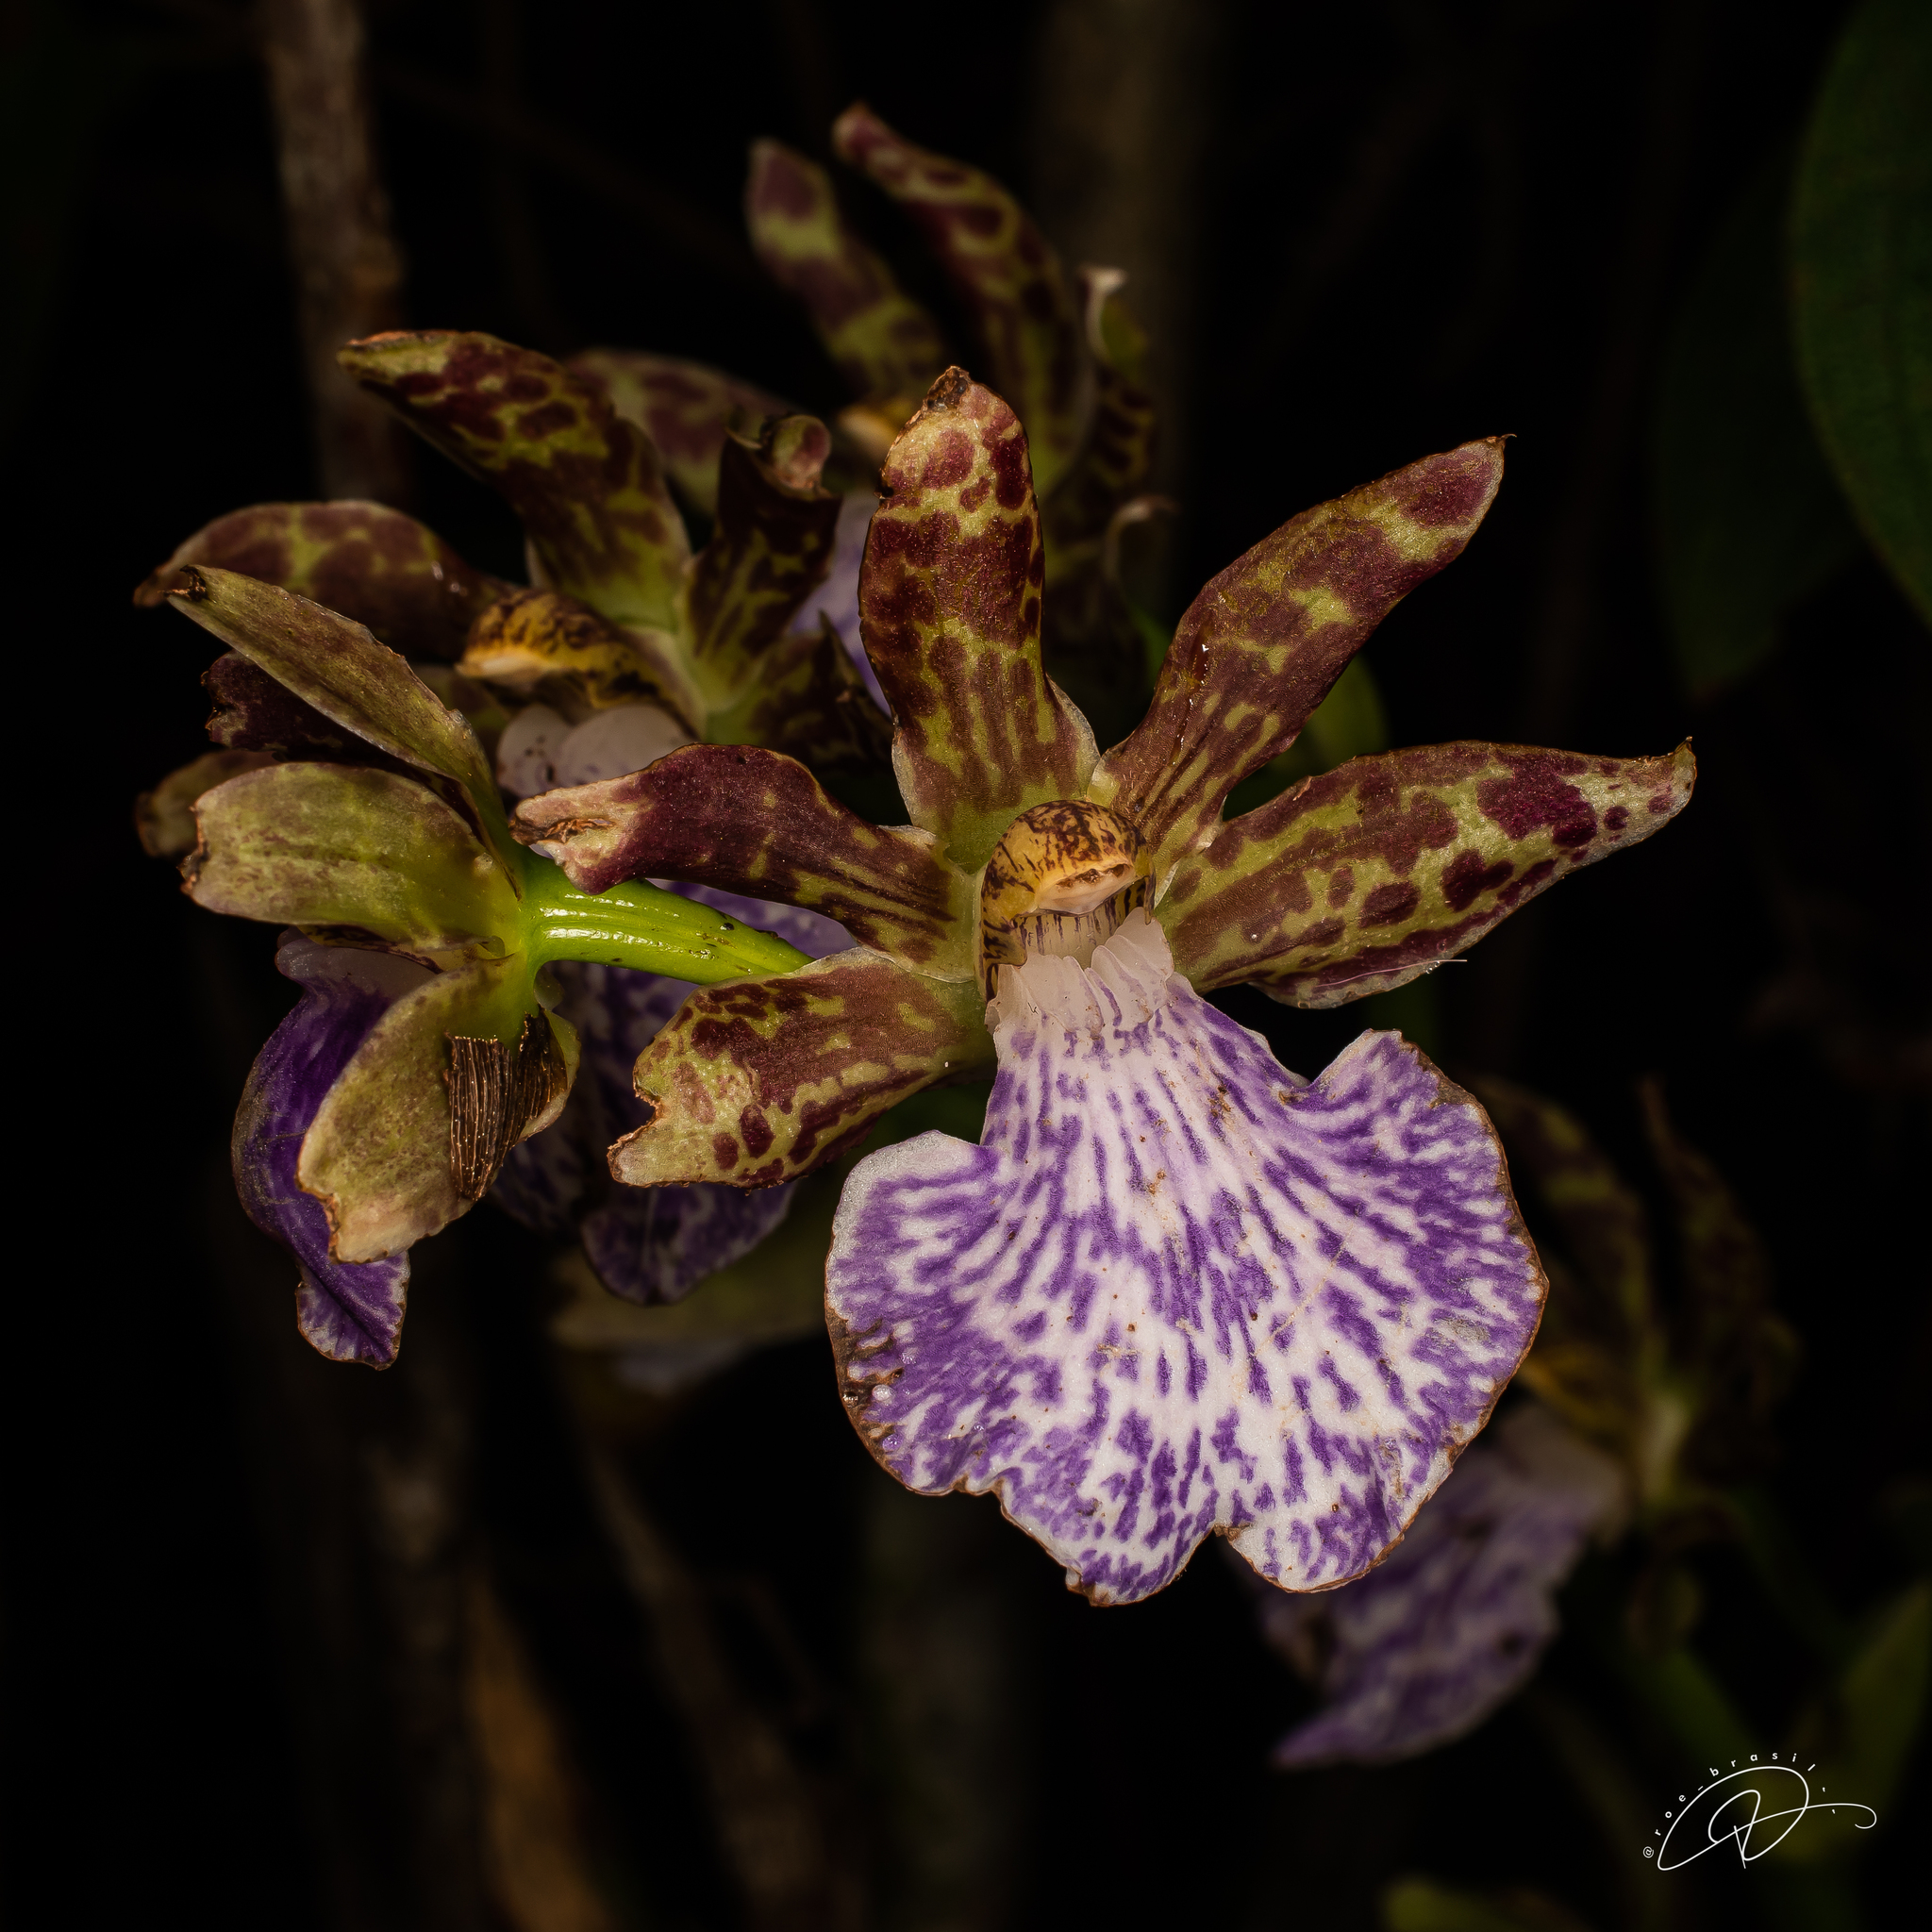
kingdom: Plantae
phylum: Tracheophyta
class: Liliopsida
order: Asparagales
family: Orchidaceae
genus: Zygopetalum
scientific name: Zygopetalum triste
